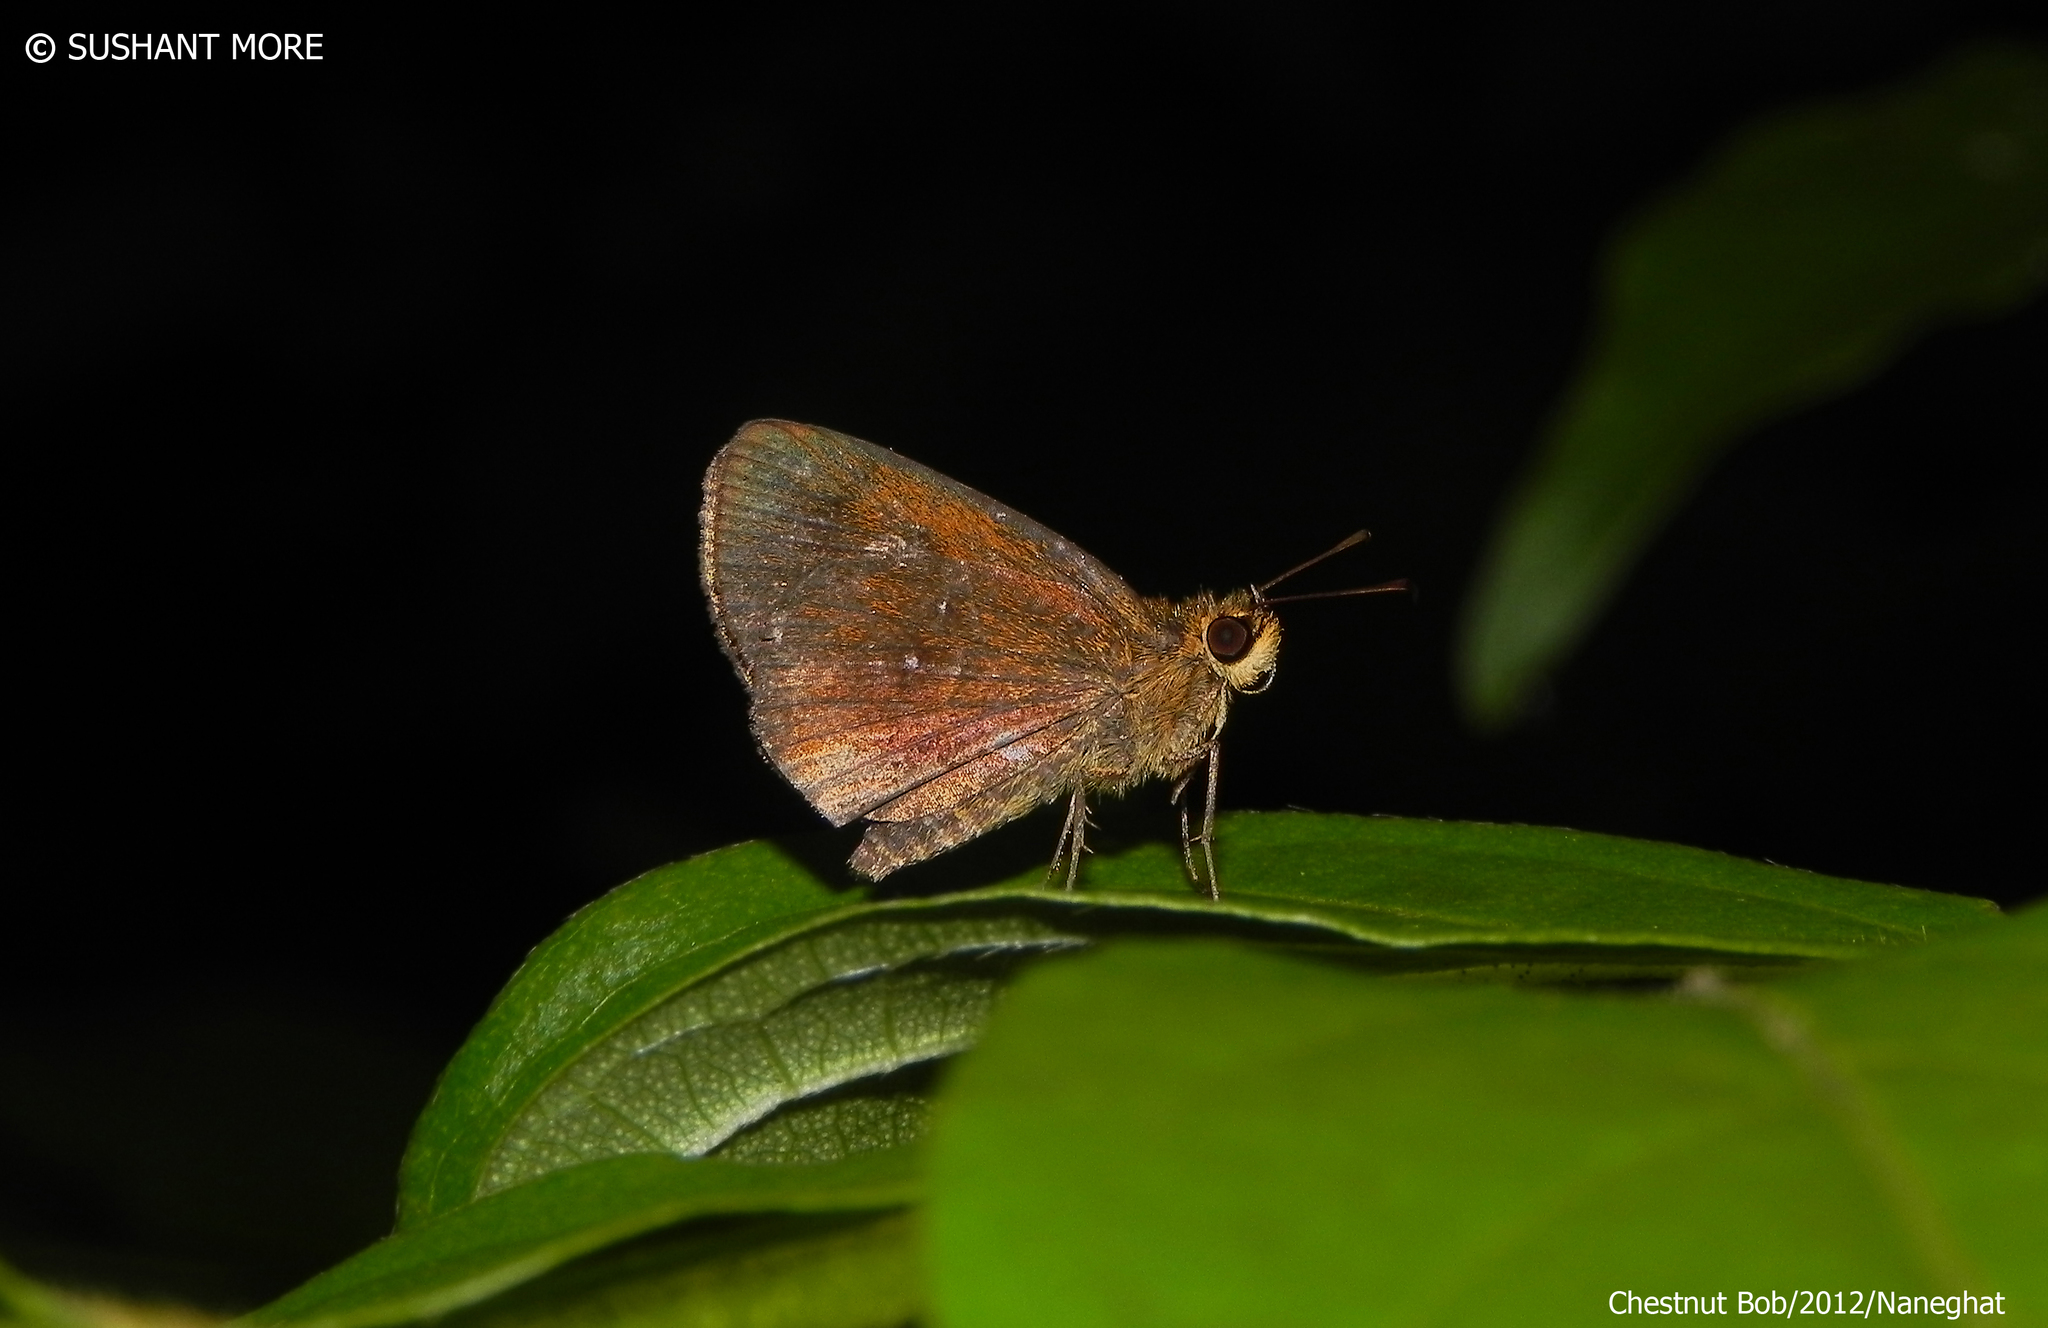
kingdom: Animalia
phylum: Arthropoda
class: Insecta
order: Lepidoptera
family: Hesperiidae
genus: Iambrix
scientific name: Iambrix salsala
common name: Chestnut bob
